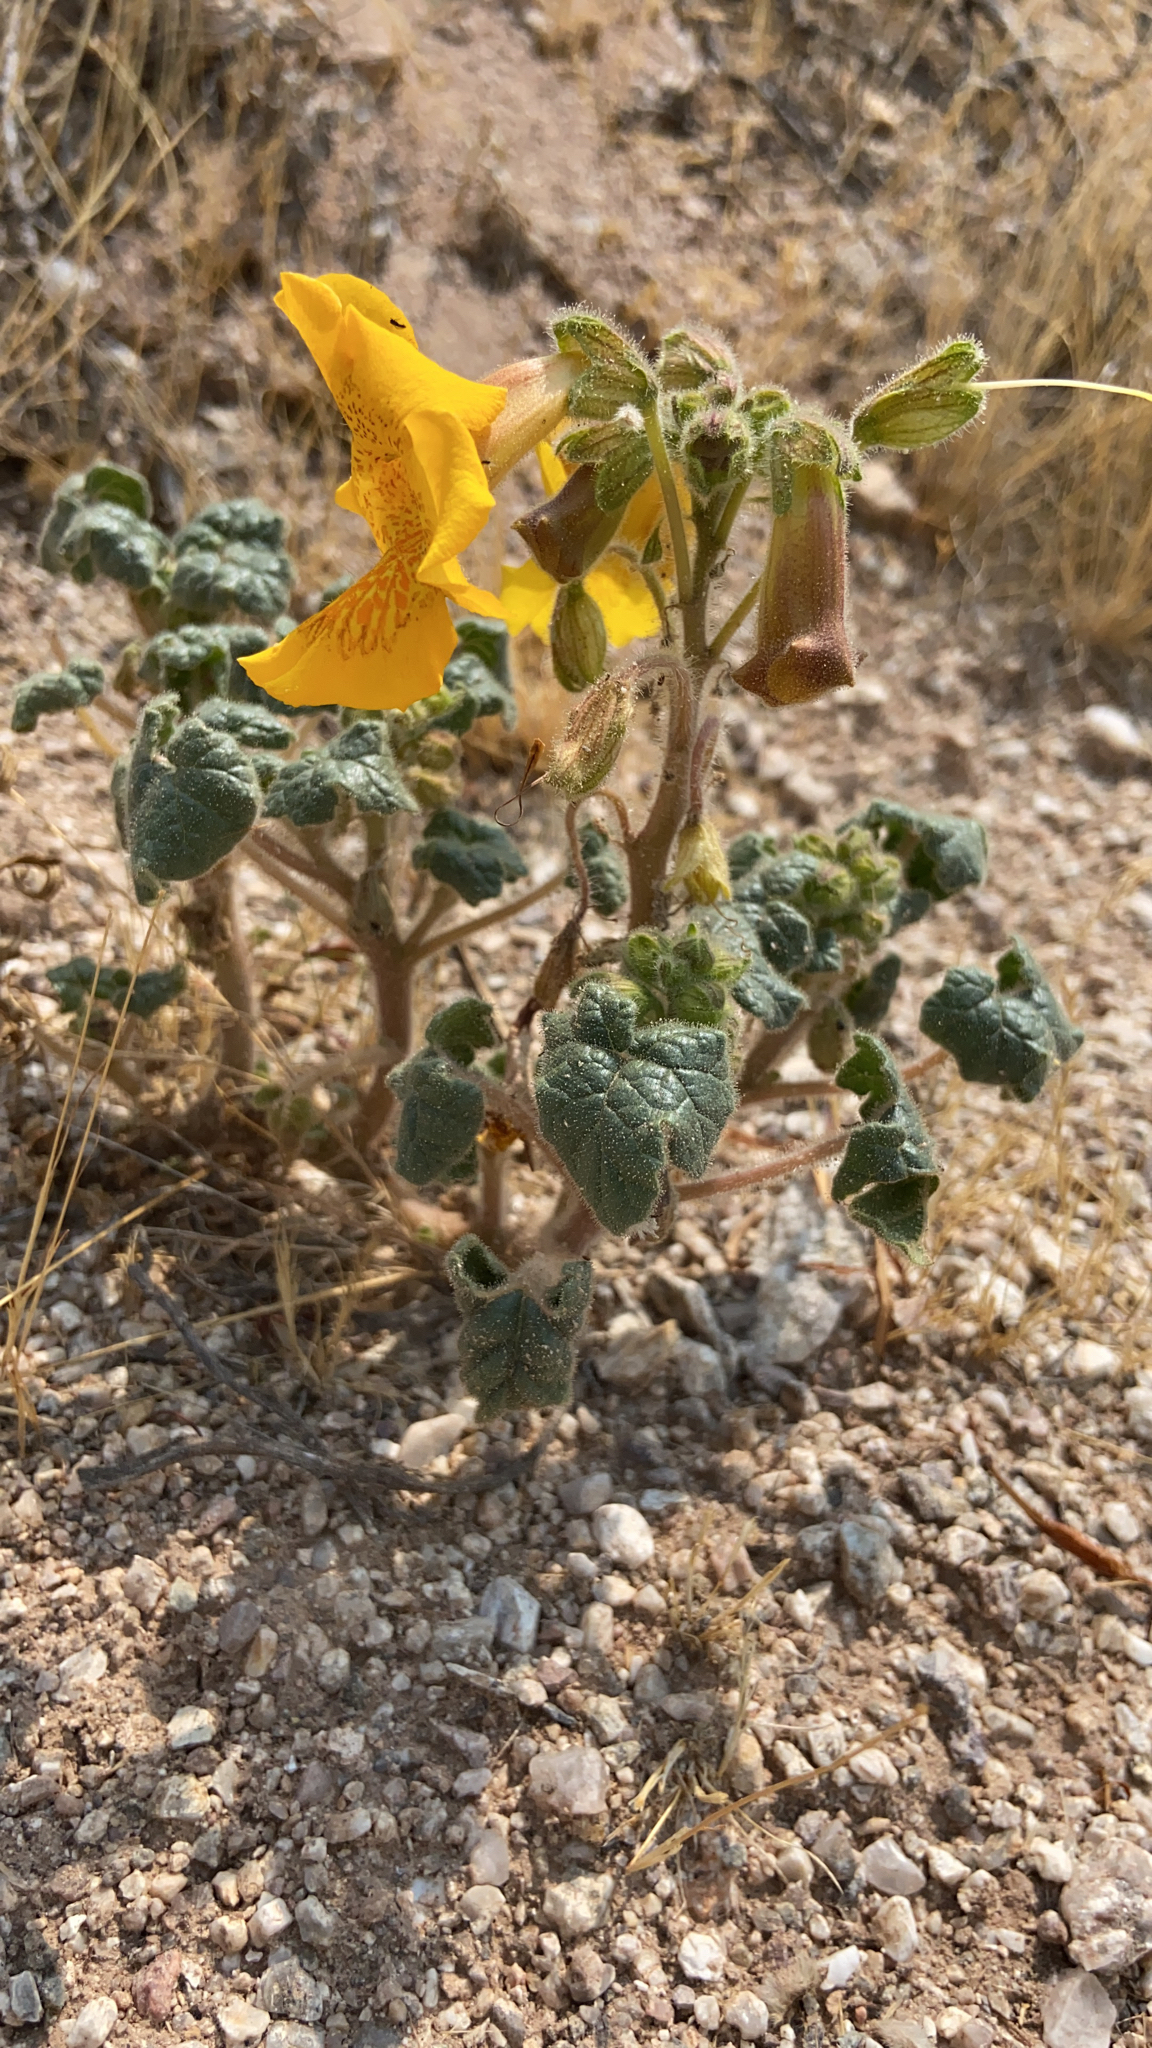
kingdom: Plantae
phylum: Tracheophyta
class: Magnoliopsida
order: Lamiales
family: Martyniaceae
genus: Proboscidea
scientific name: Proboscidea althaeifolia
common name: Desert unicorn-plant
